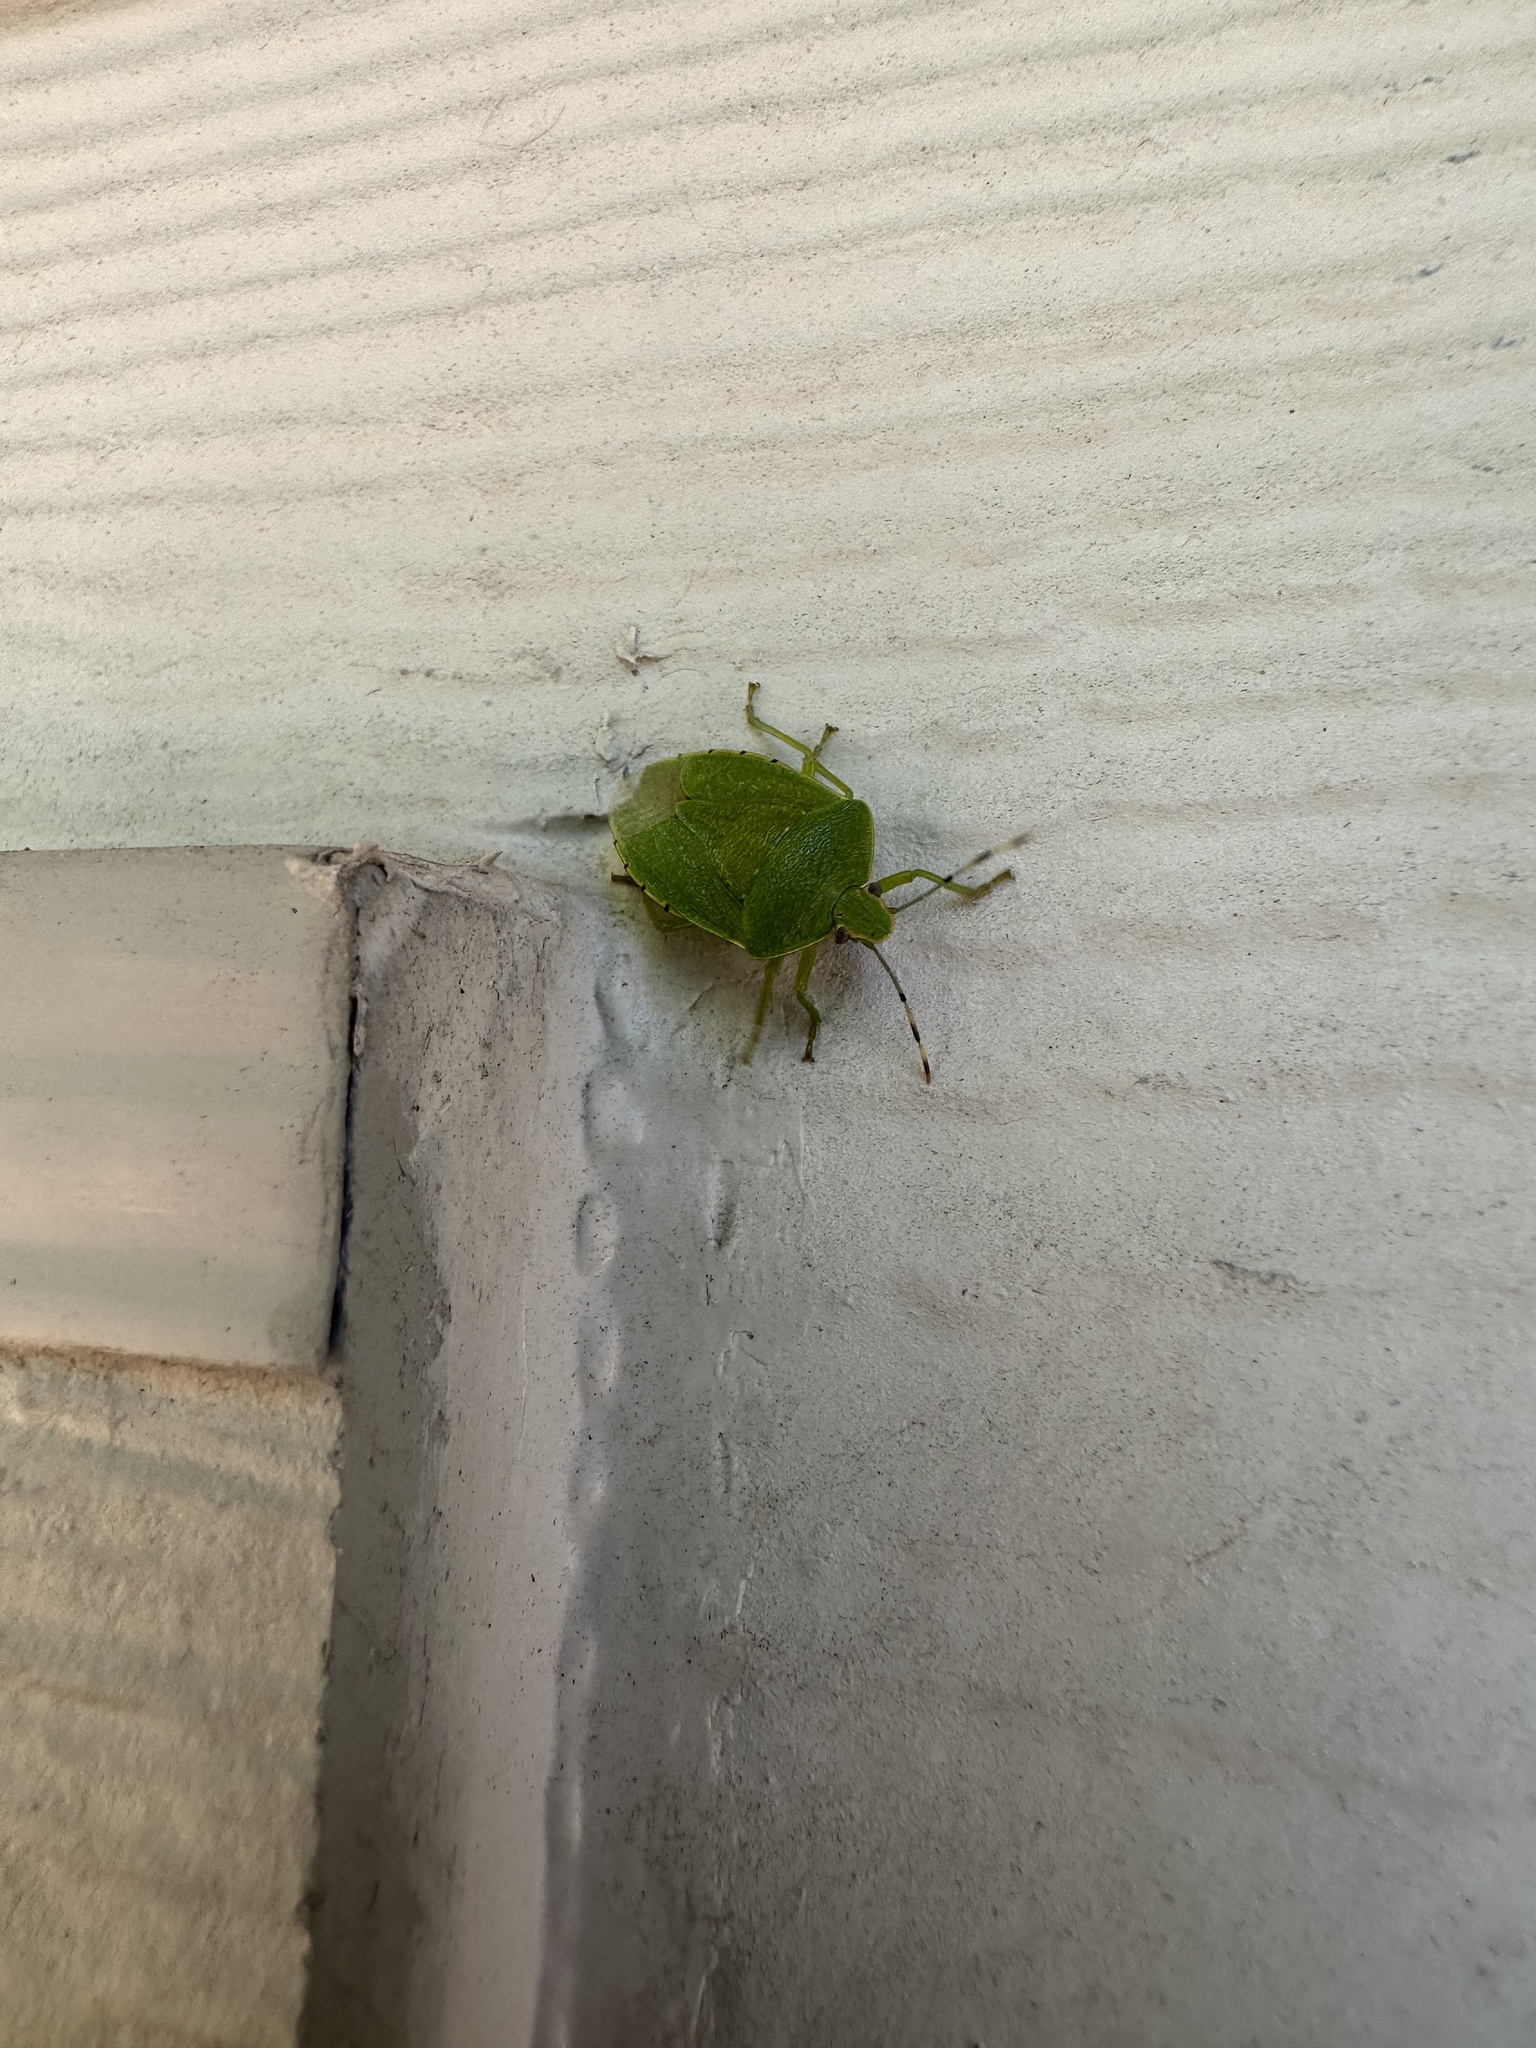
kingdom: Animalia
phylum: Arthropoda
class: Insecta
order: Hemiptera
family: Pentatomidae
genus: Chinavia
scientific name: Chinavia hilaris
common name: Green stink bug
